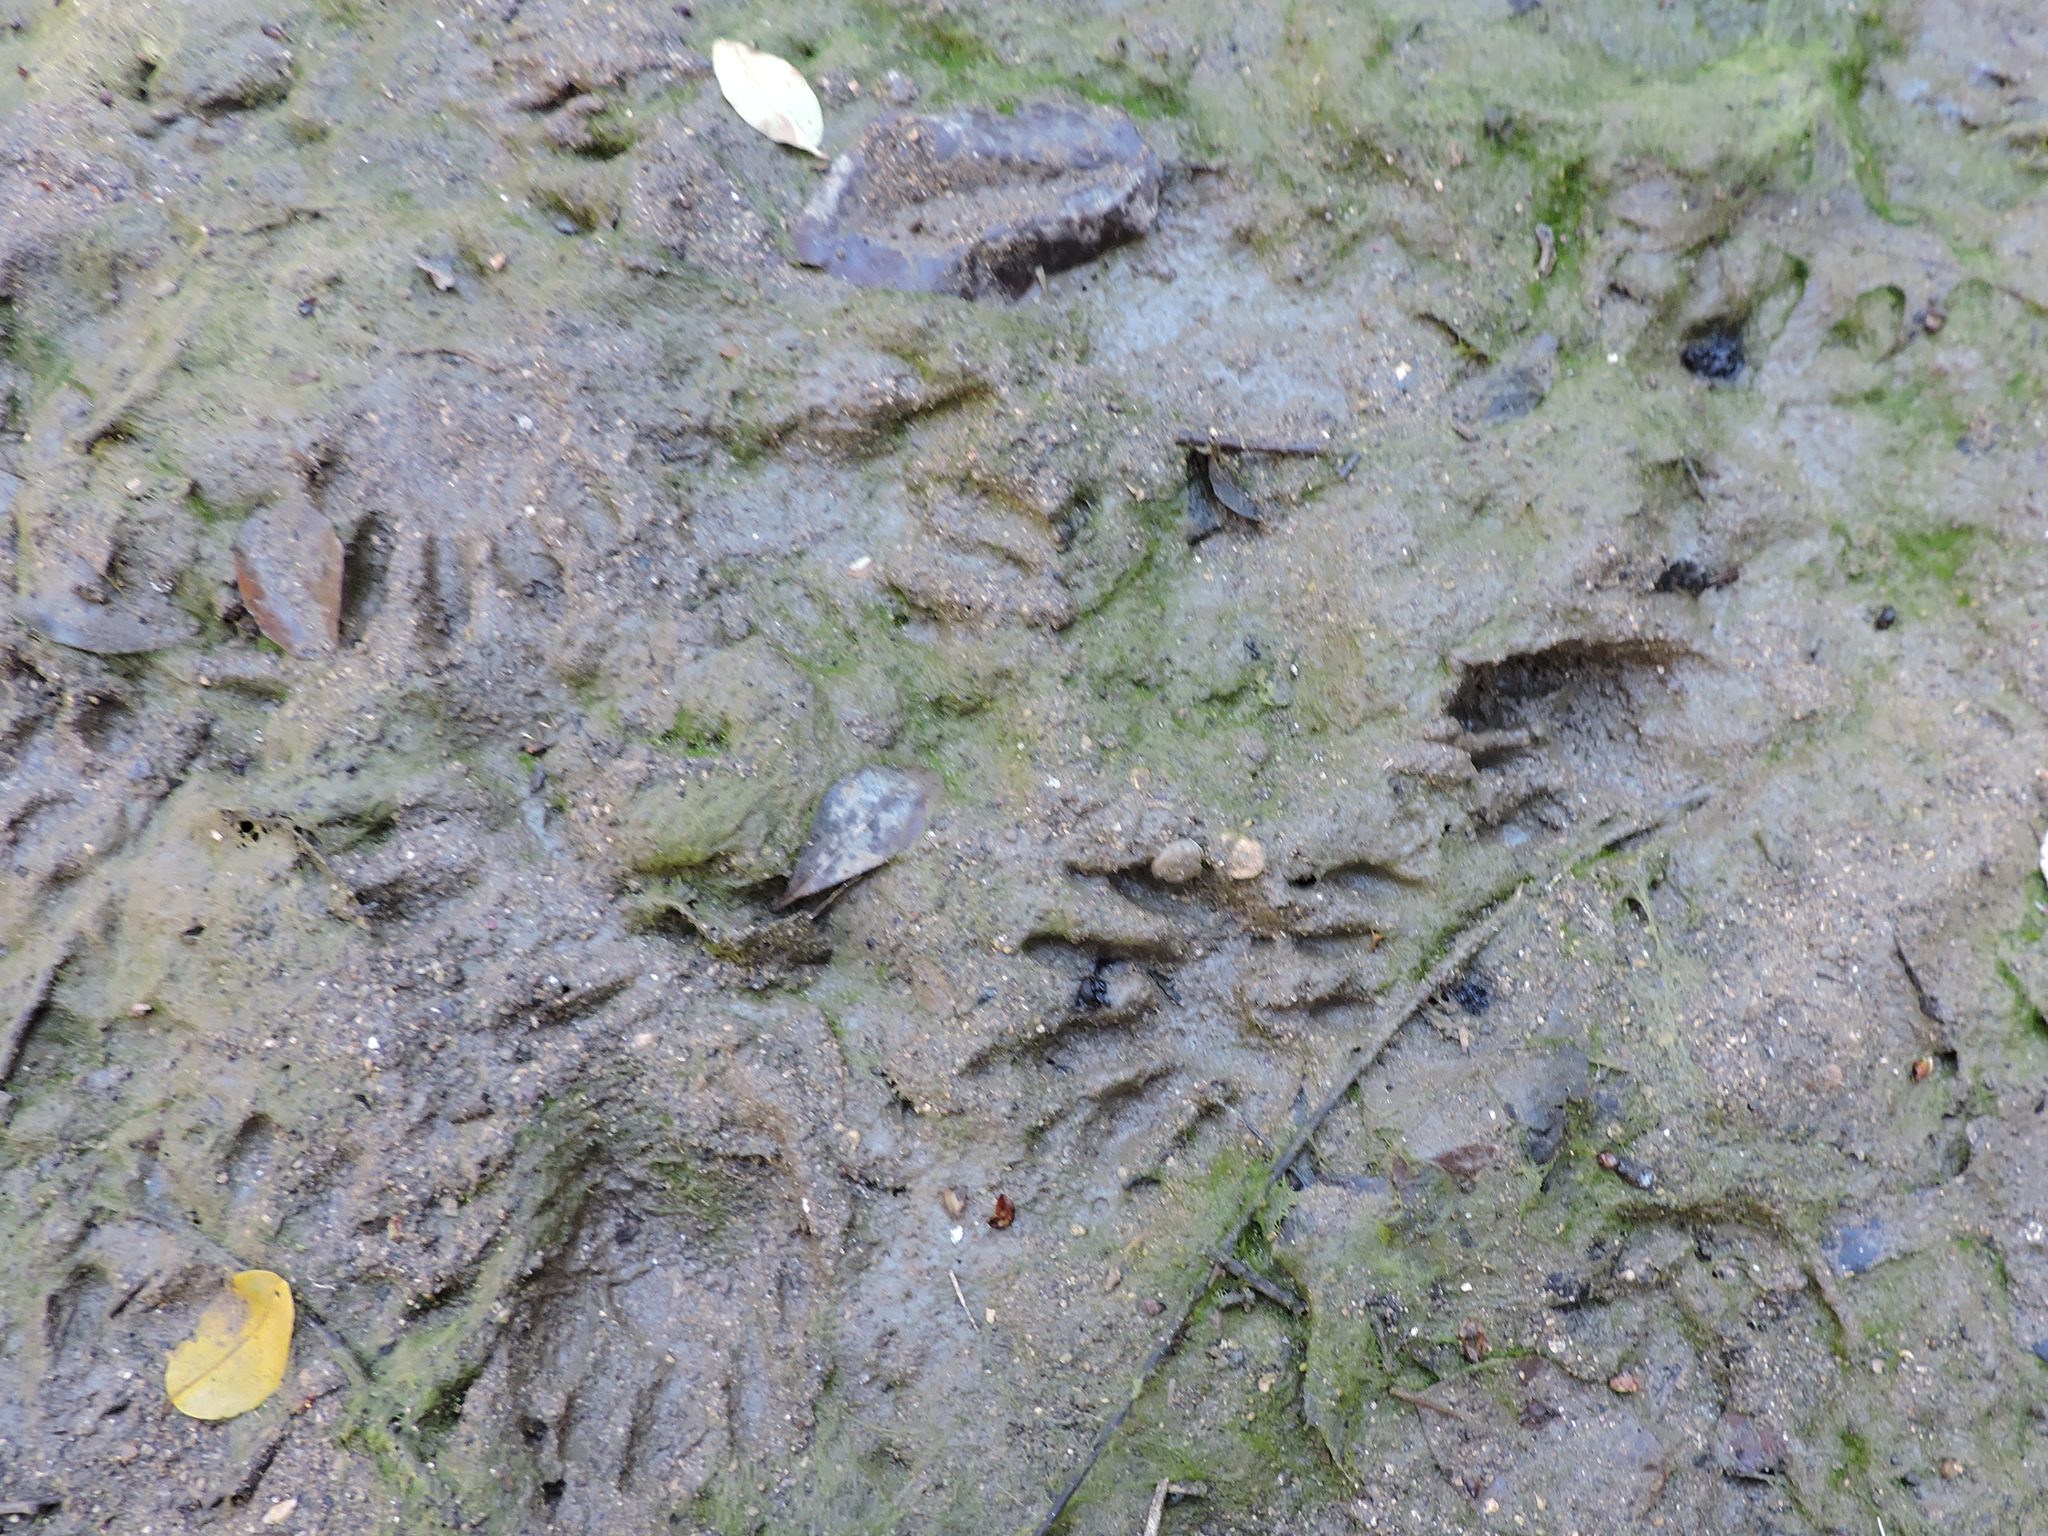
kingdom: Animalia
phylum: Chordata
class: Mammalia
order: Carnivora
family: Procyonidae
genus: Procyon
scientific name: Procyon lotor
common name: Raccoon
